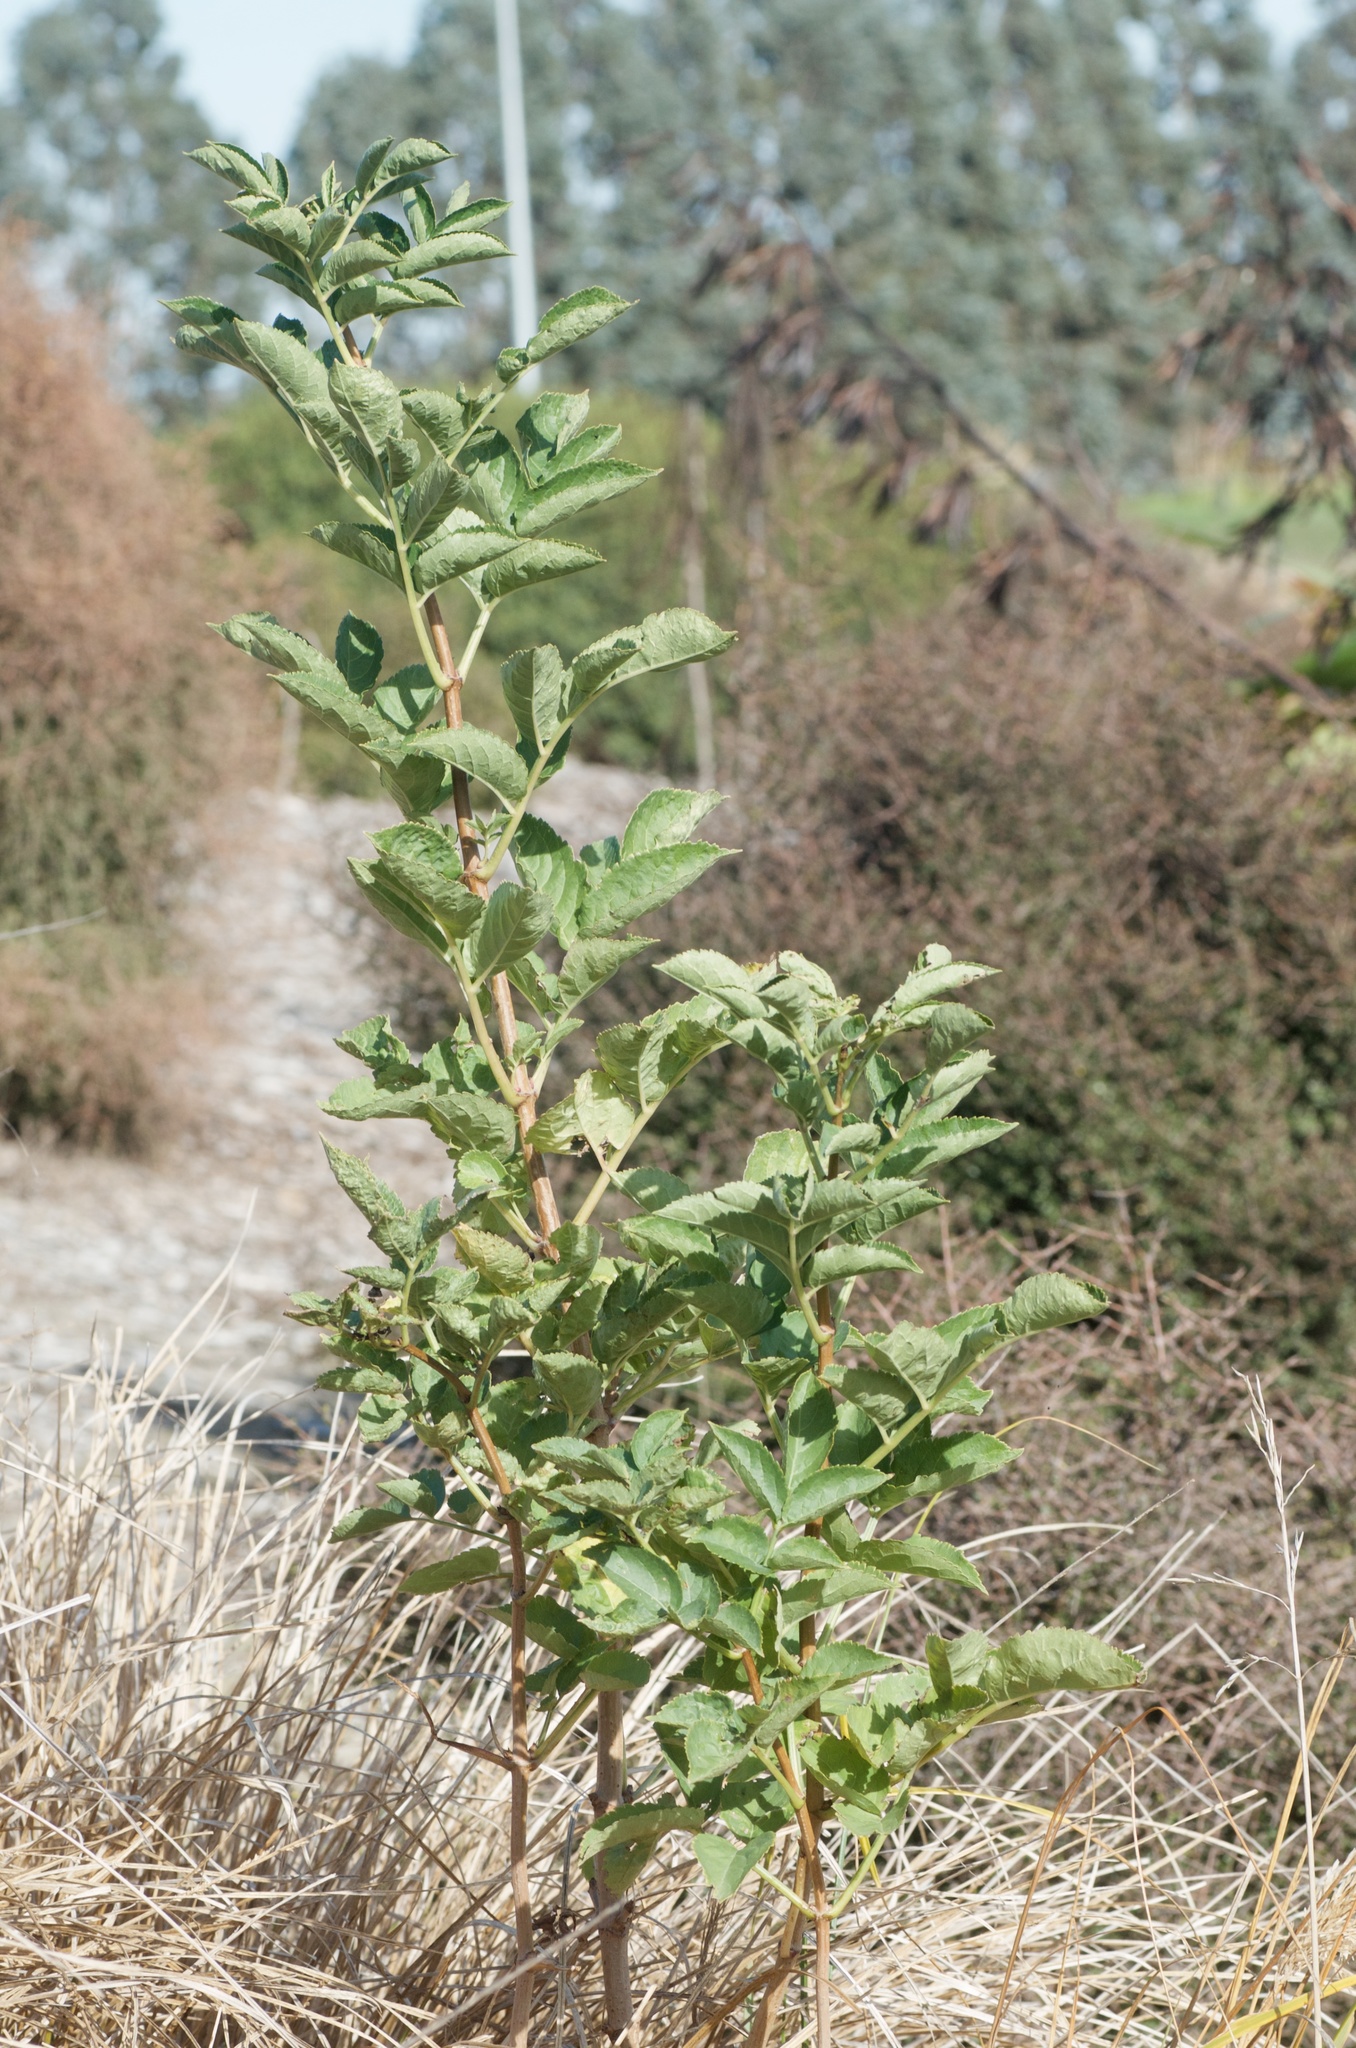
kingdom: Plantae
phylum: Tracheophyta
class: Magnoliopsida
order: Dipsacales
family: Viburnaceae
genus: Sambucus
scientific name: Sambucus nigra
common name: Elder
